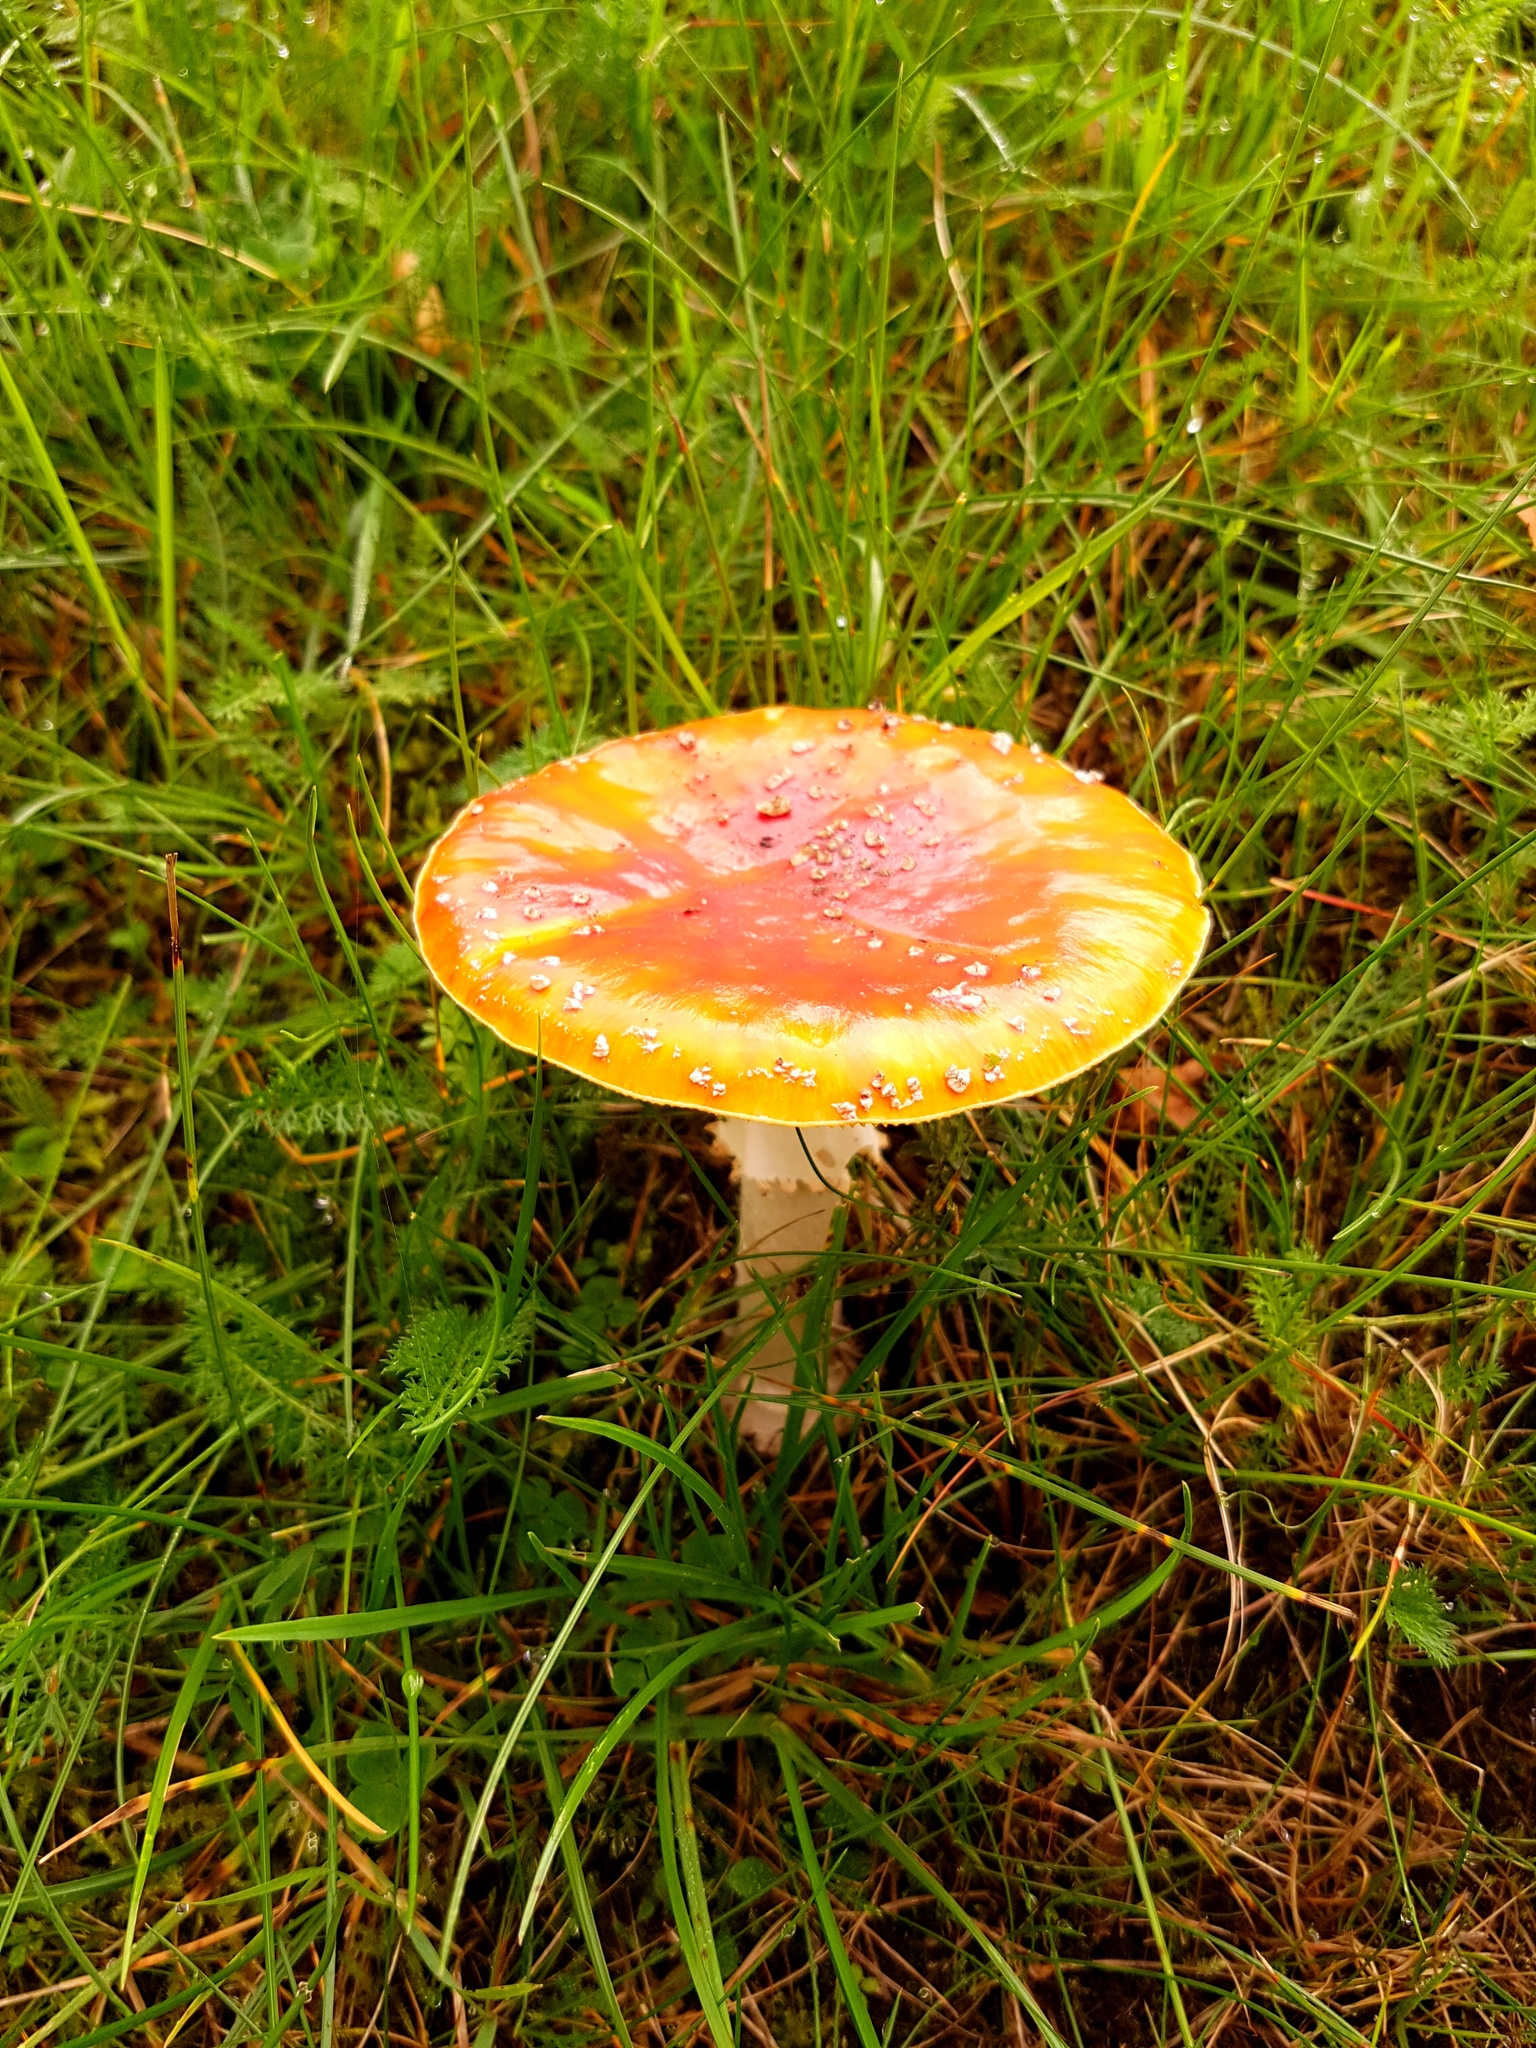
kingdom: Fungi
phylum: Basidiomycota
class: Agaricomycetes
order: Agaricales
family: Amanitaceae
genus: Amanita
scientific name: Amanita muscaria
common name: Fly agaric
